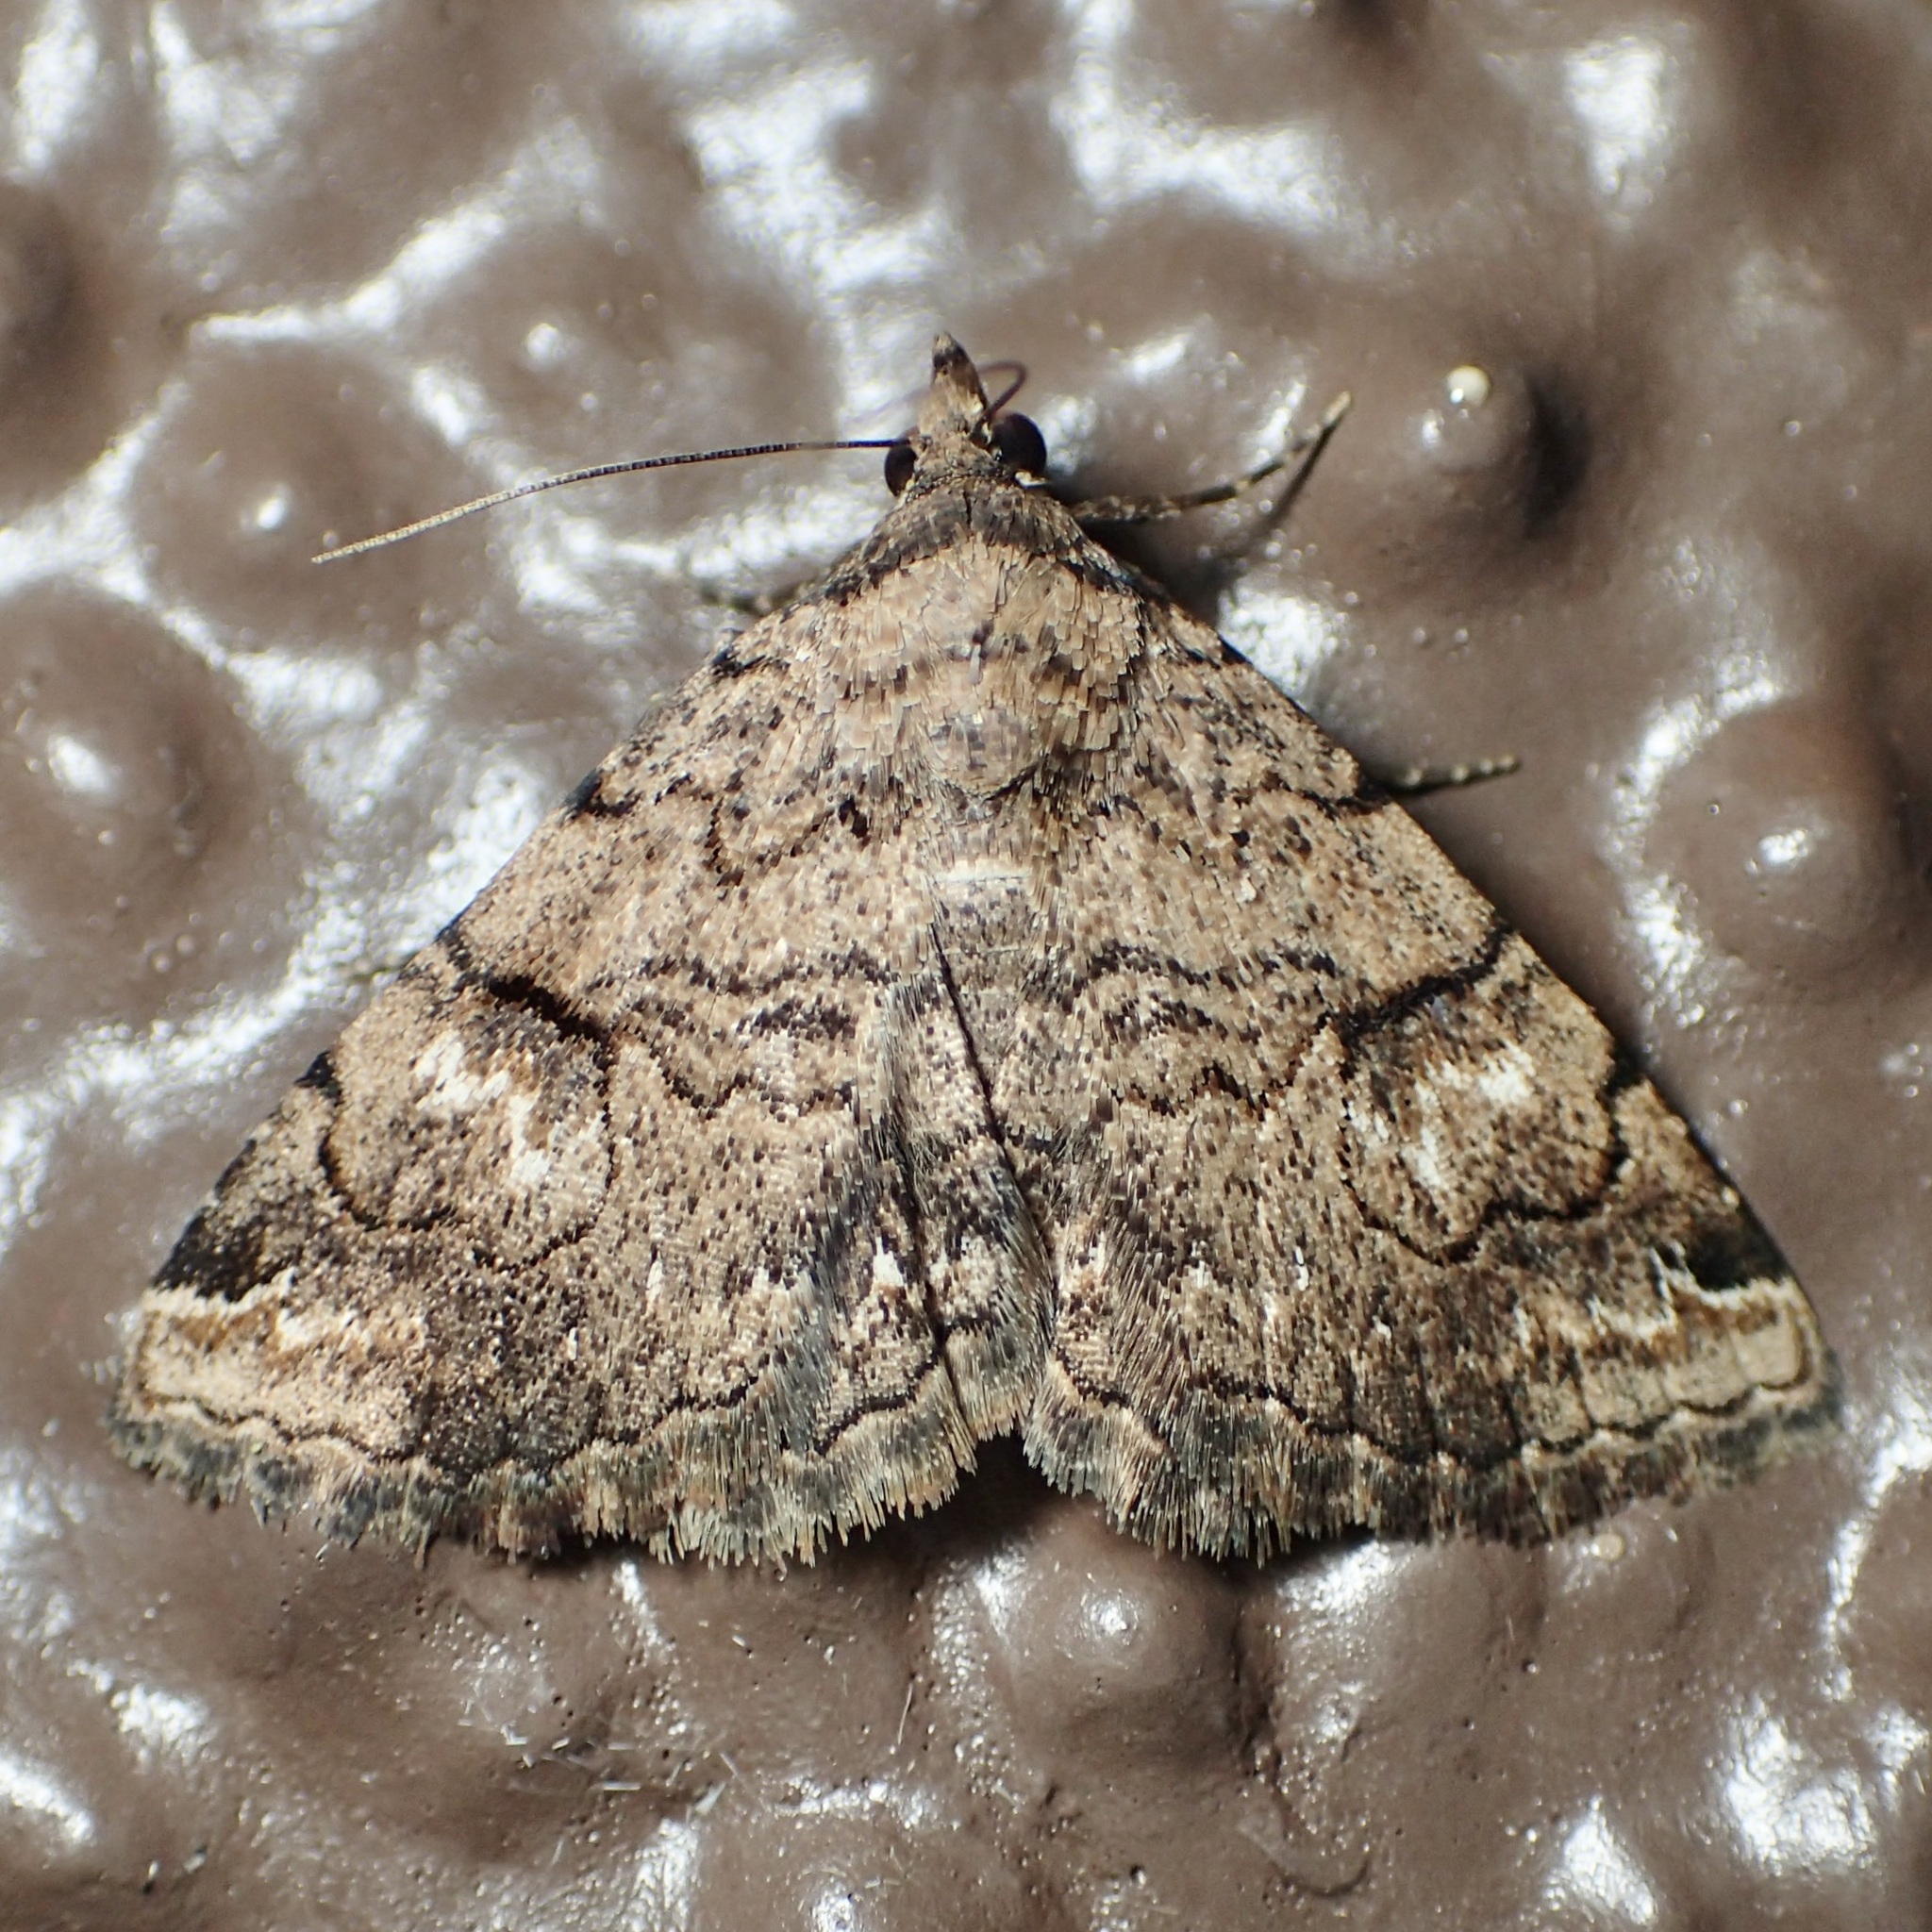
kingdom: Animalia
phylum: Arthropoda
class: Insecta
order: Lepidoptera
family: Erebidae
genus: Toxonprucha
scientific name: Toxonprucha repentis
